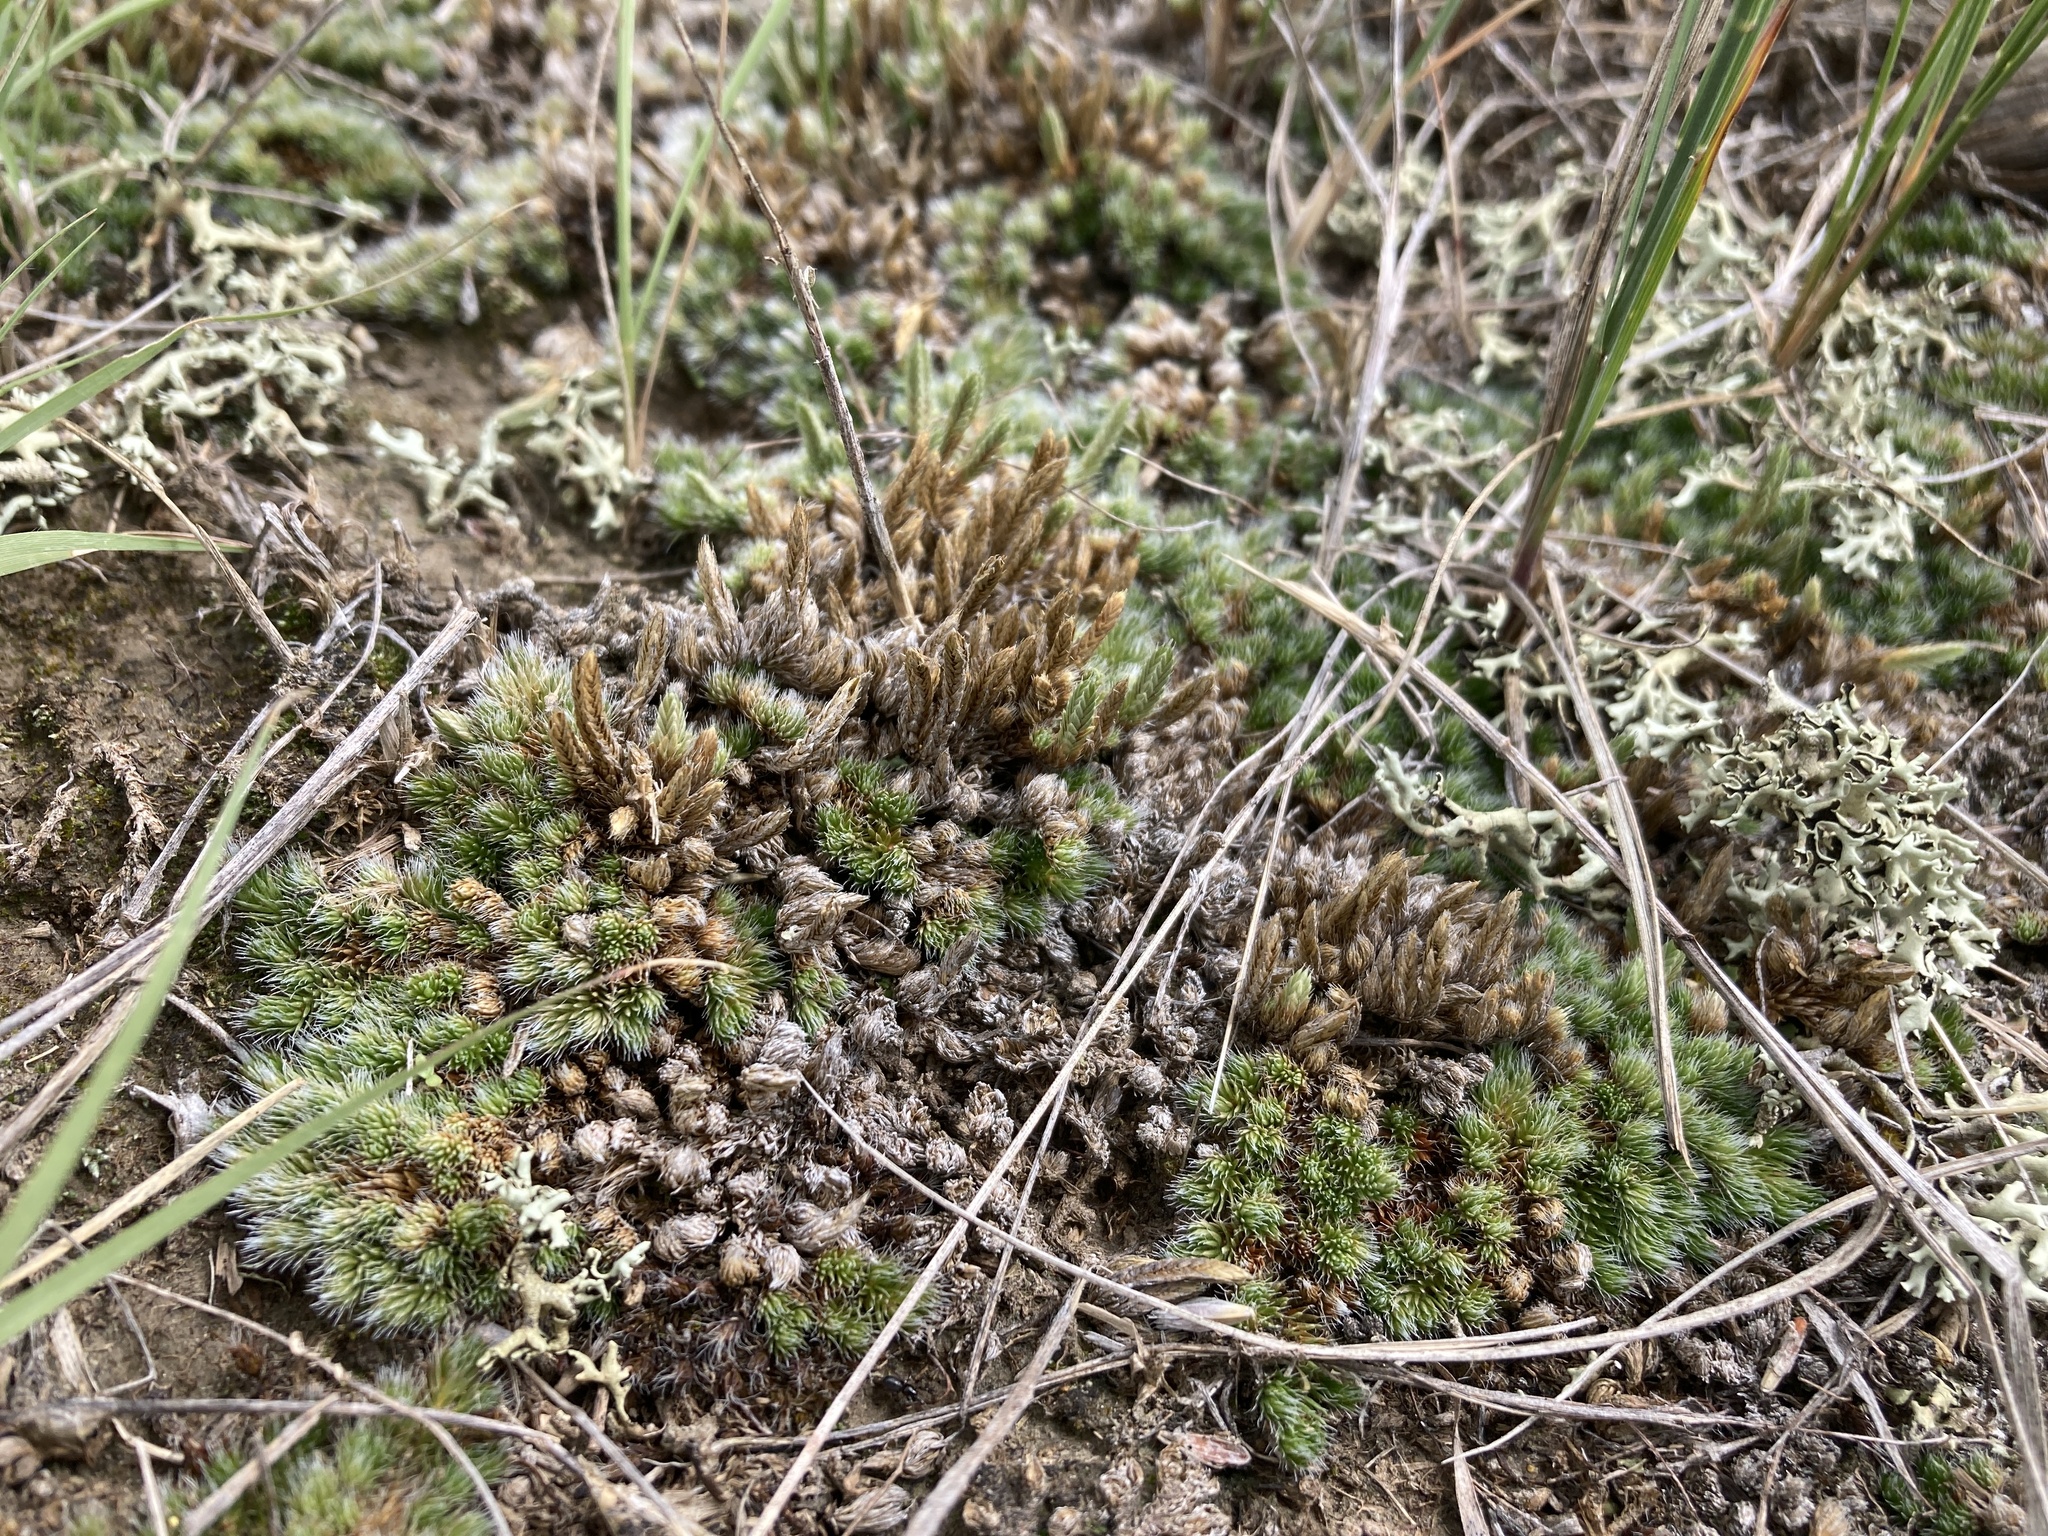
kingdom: Plantae
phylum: Tracheophyta
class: Lycopodiopsida
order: Selaginellales
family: Selaginellaceae
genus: Selaginella
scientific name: Selaginella densa
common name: Mountain spike-moss
